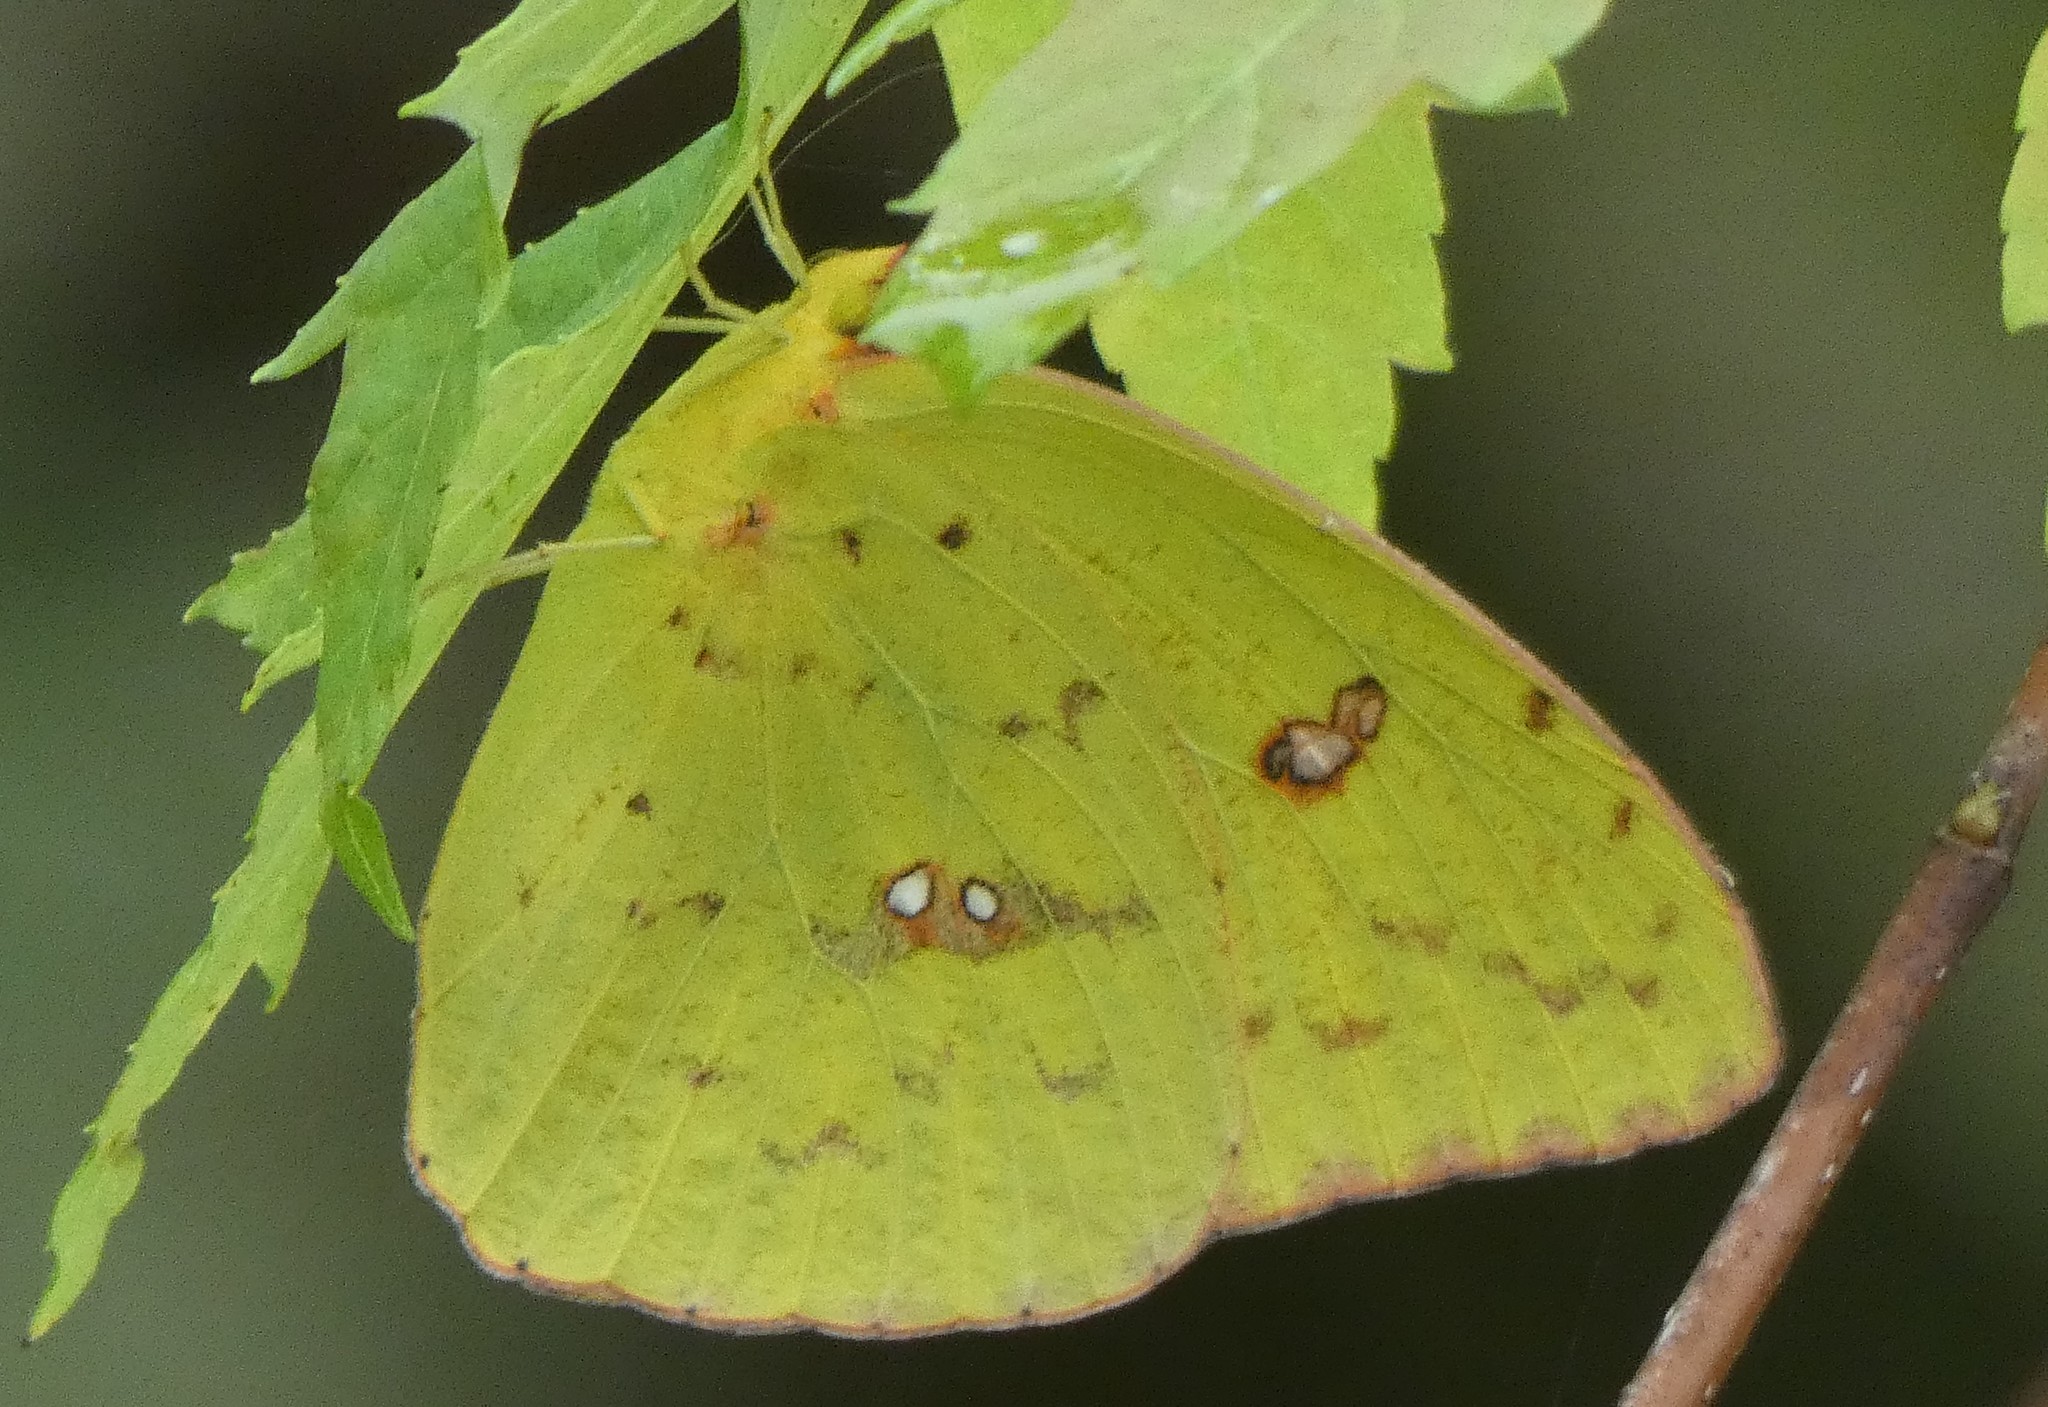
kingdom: Animalia
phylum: Arthropoda
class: Insecta
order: Lepidoptera
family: Pieridae
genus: Phoebis
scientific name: Phoebis sennae
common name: Cloudless sulphur
